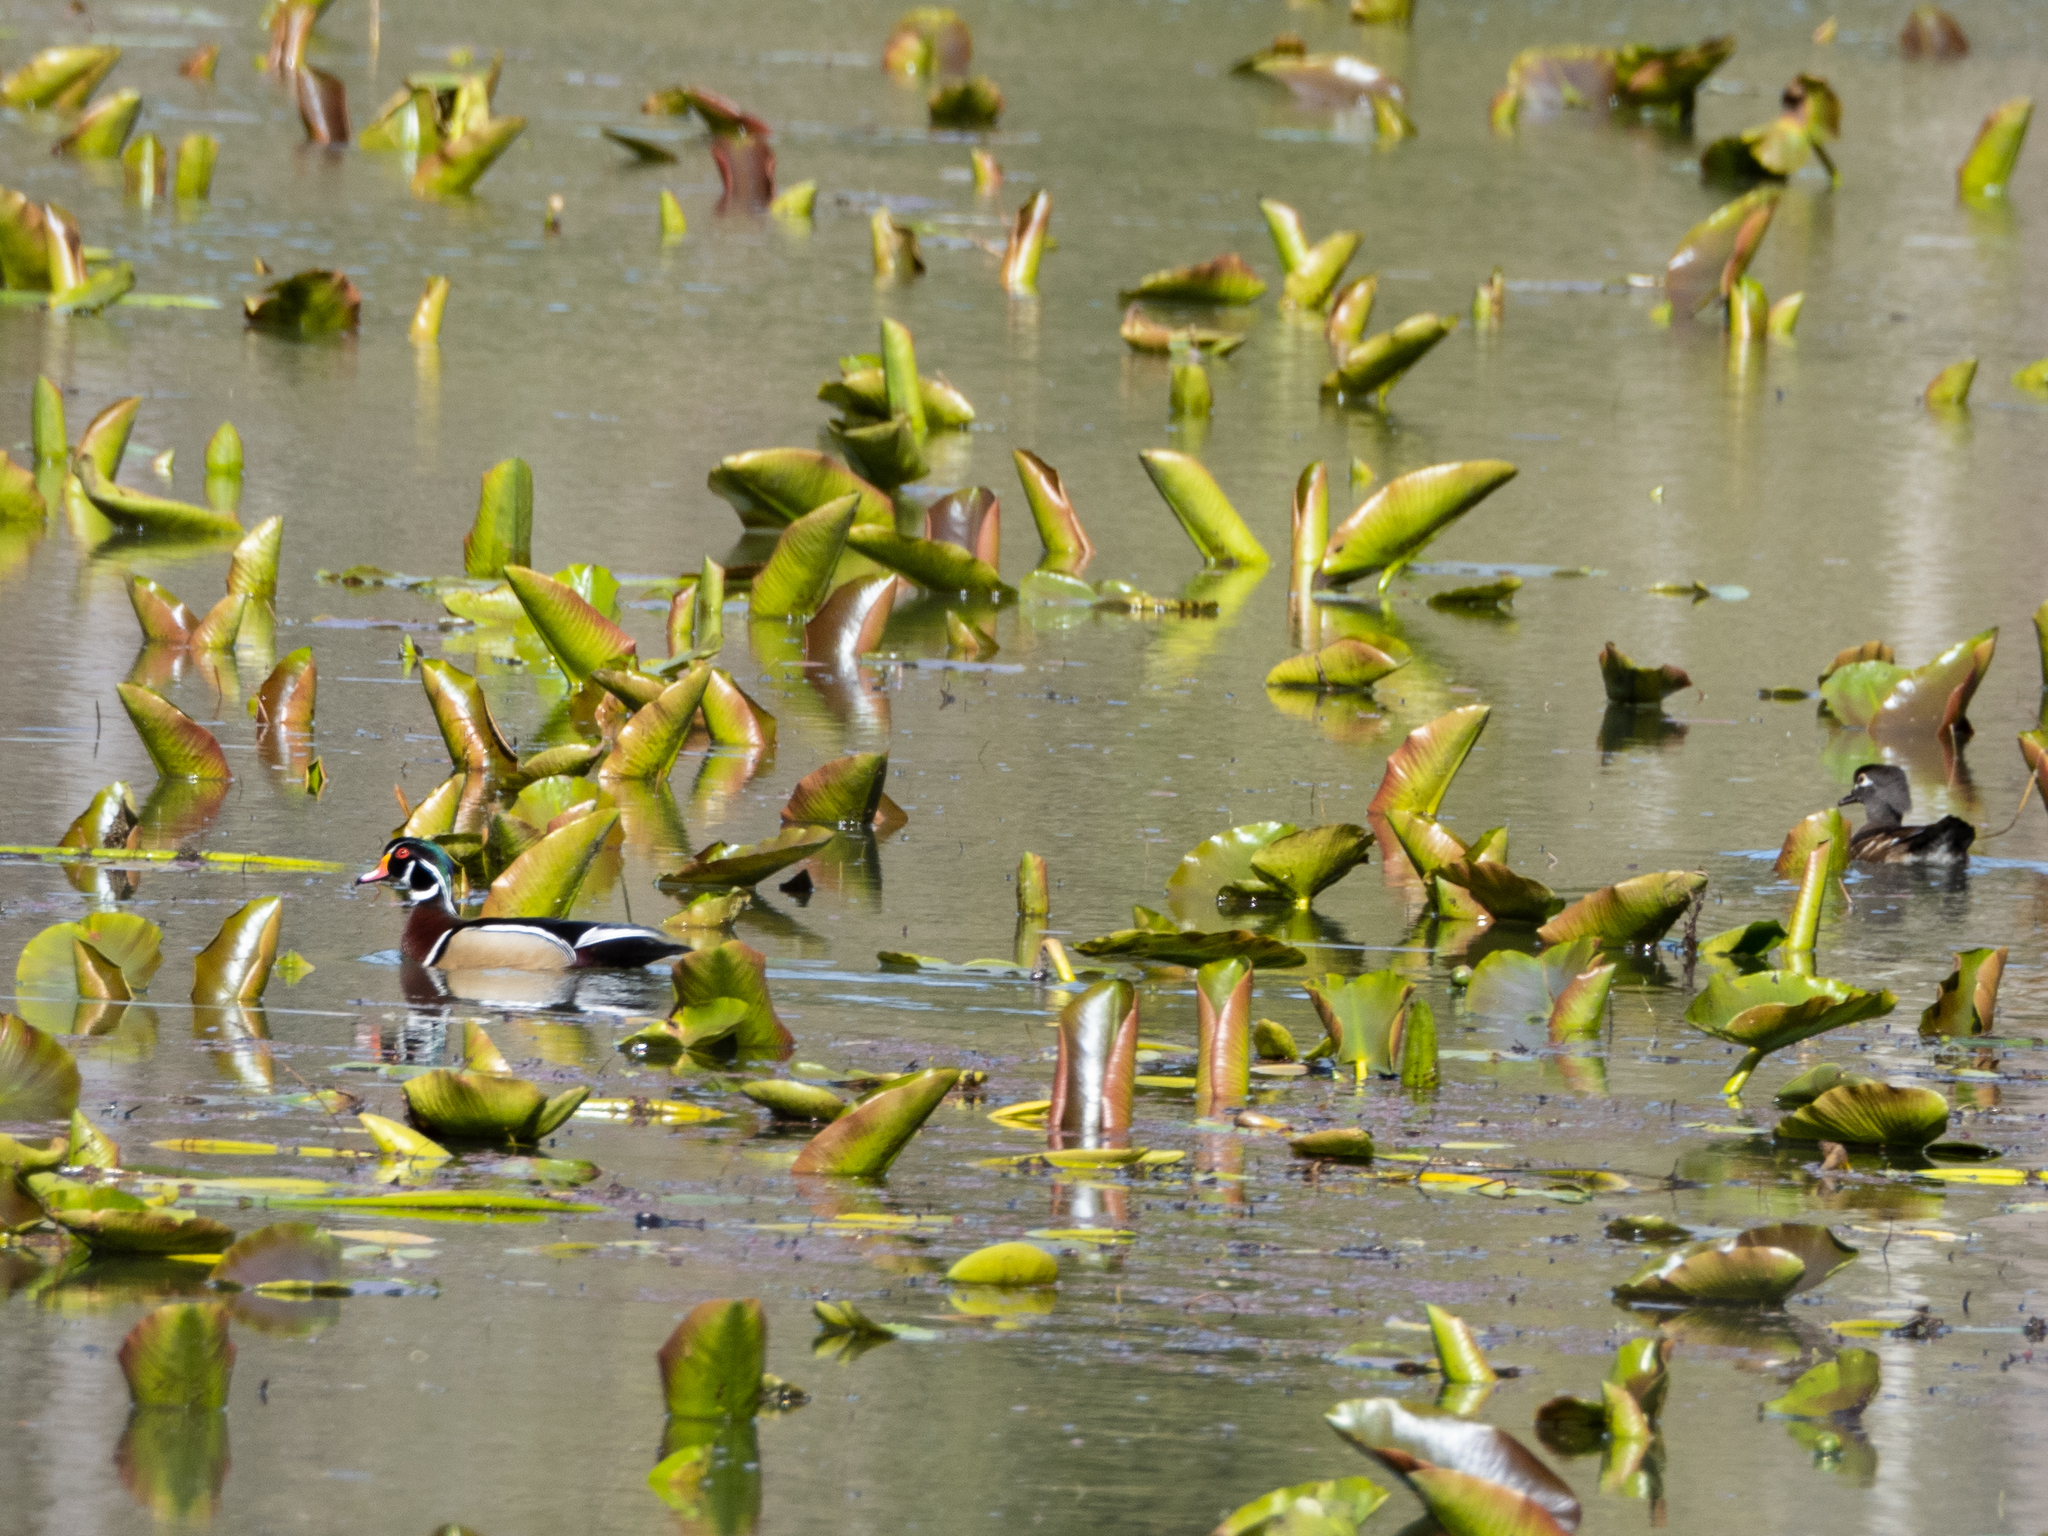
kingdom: Animalia
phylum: Chordata
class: Aves
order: Anseriformes
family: Anatidae
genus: Aix
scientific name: Aix sponsa
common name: Wood duck
